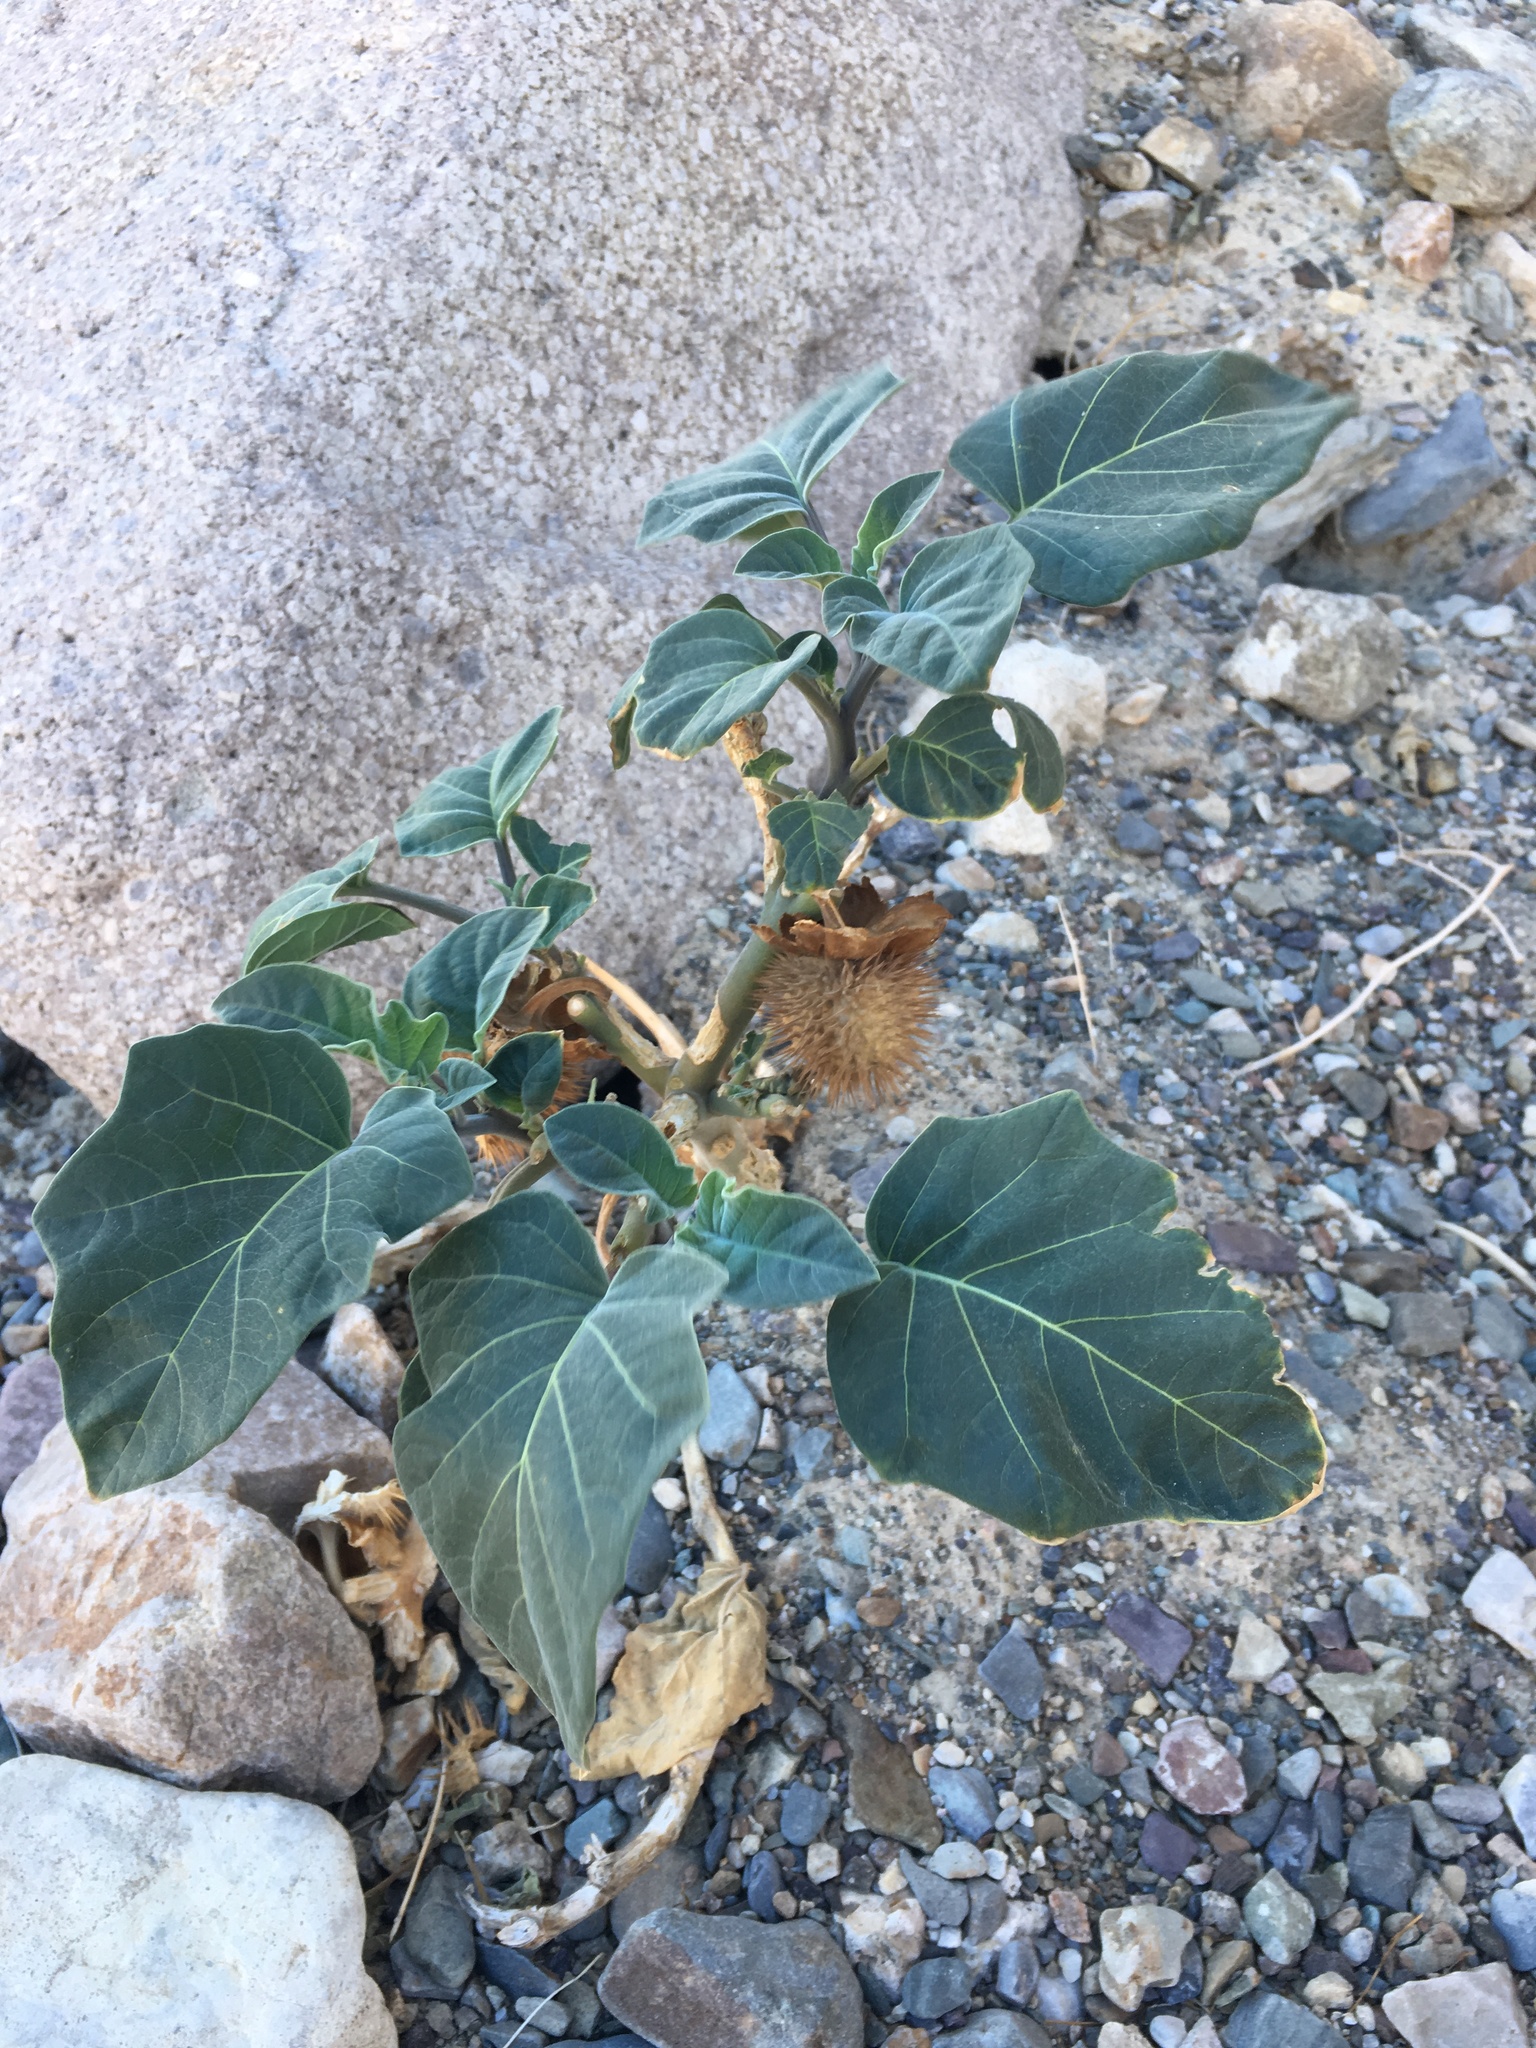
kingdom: Plantae
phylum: Tracheophyta
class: Magnoliopsida
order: Solanales
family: Solanaceae
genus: Datura
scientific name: Datura wrightii
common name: Sacred thorn-apple
